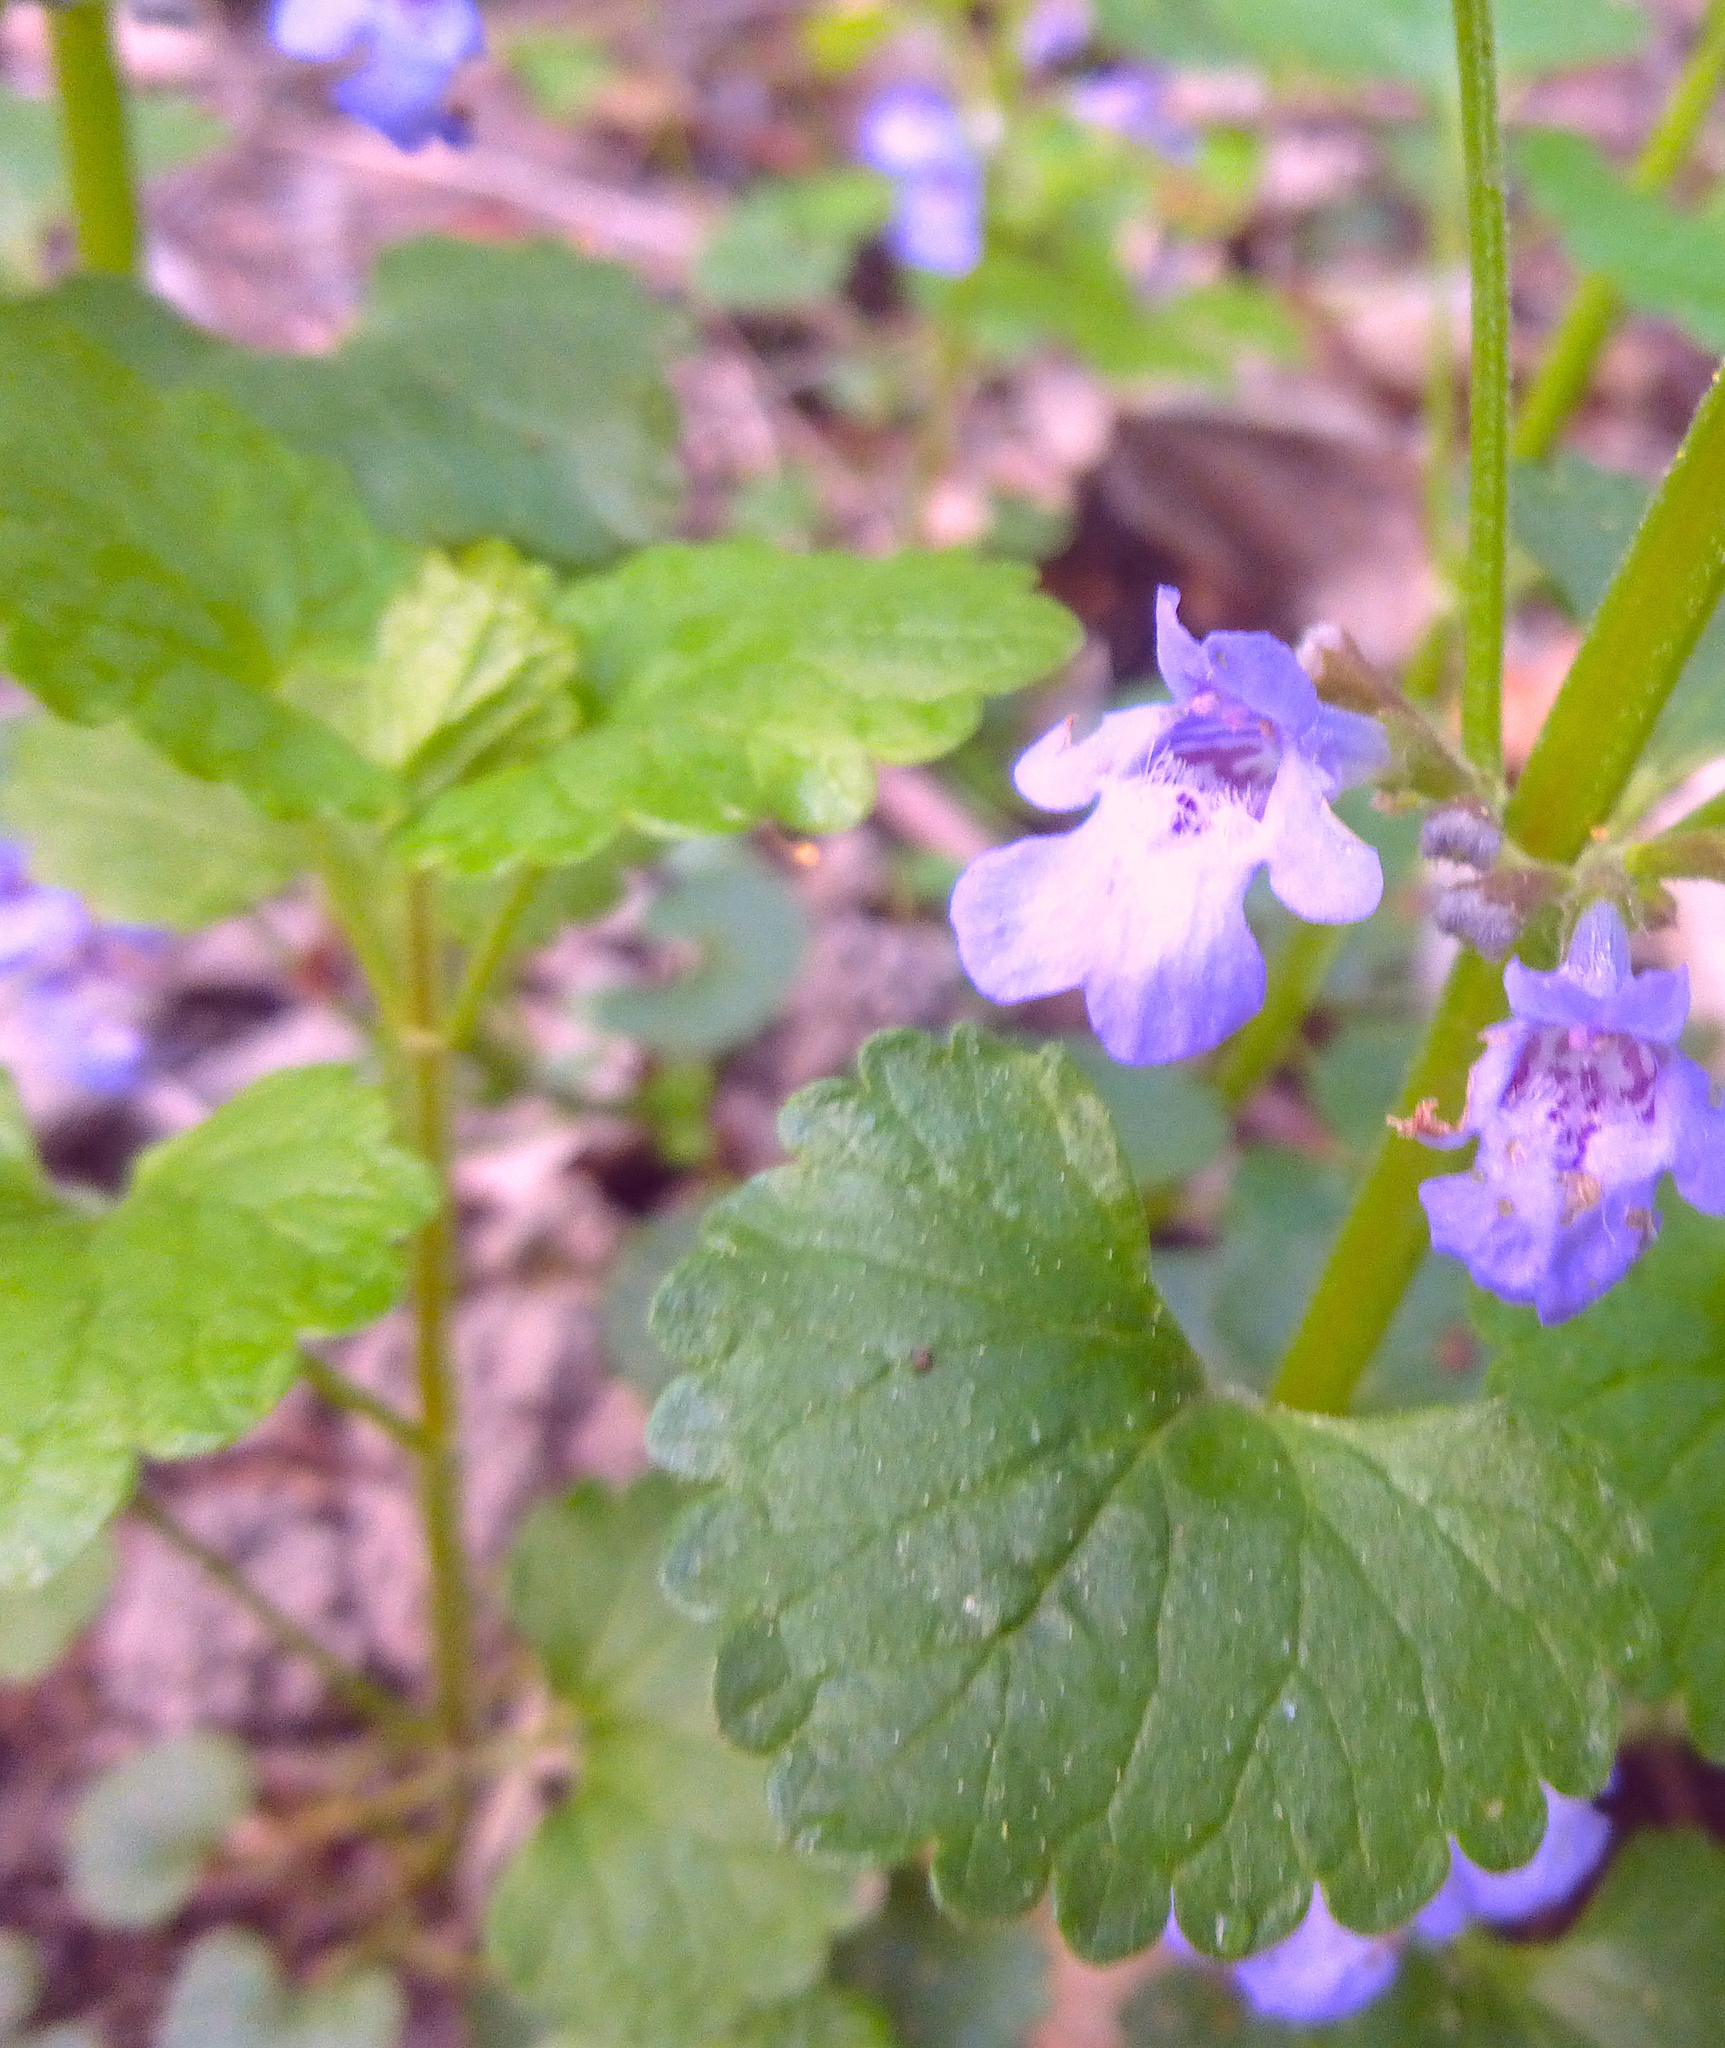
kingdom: Plantae
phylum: Tracheophyta
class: Magnoliopsida
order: Lamiales
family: Lamiaceae
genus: Glechoma
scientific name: Glechoma hederacea
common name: Ground ivy
